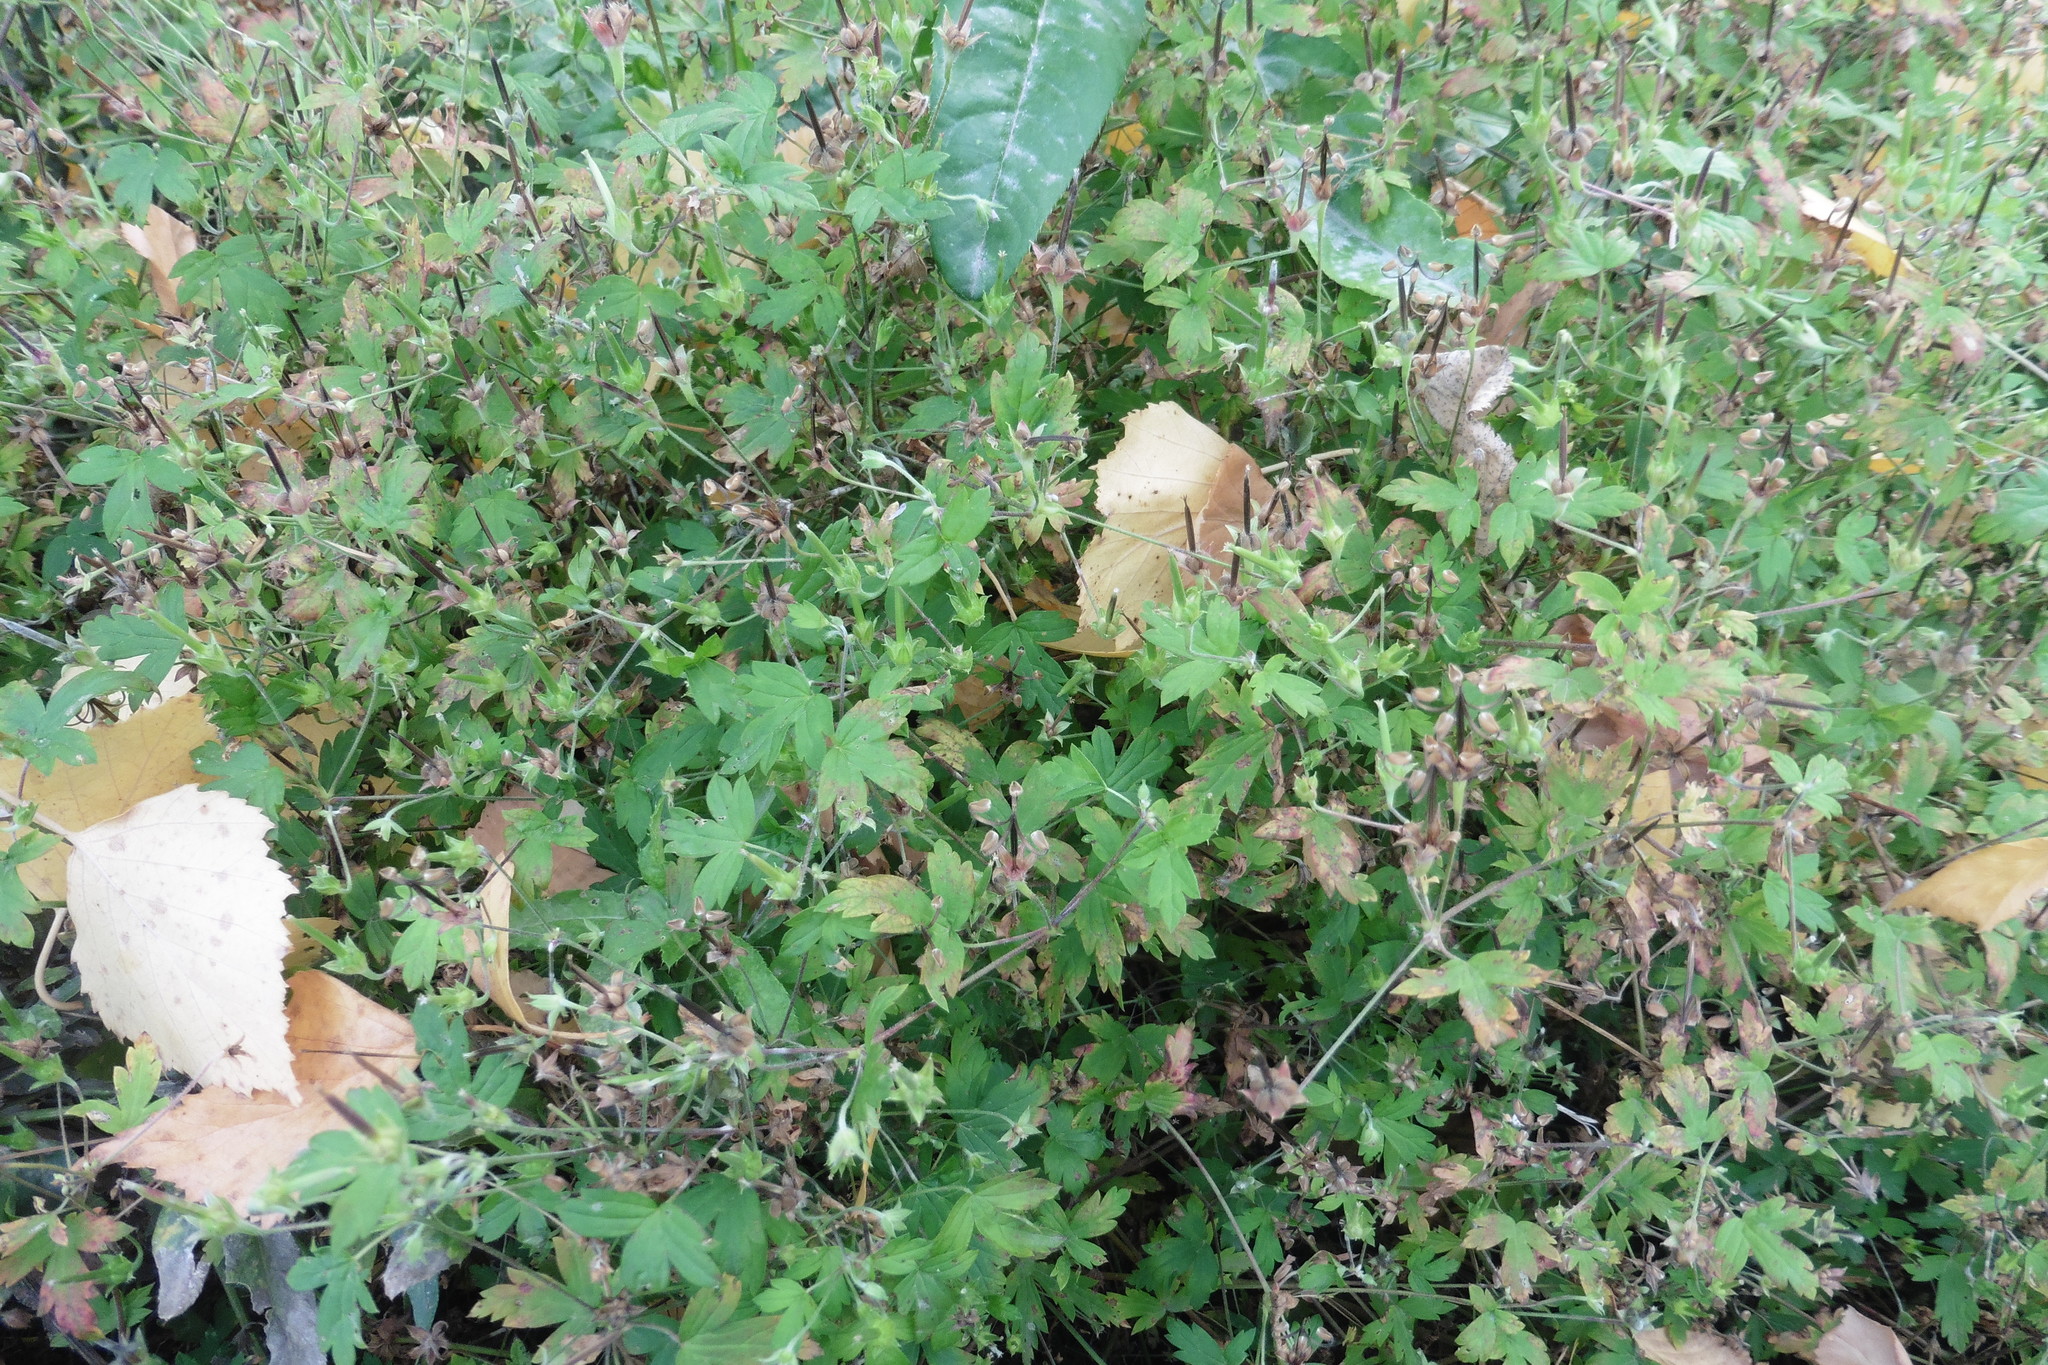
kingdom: Plantae
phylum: Tracheophyta
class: Magnoliopsida
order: Geraniales
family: Geraniaceae
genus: Geranium
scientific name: Geranium sibiricum
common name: Siberian crane's-bill
